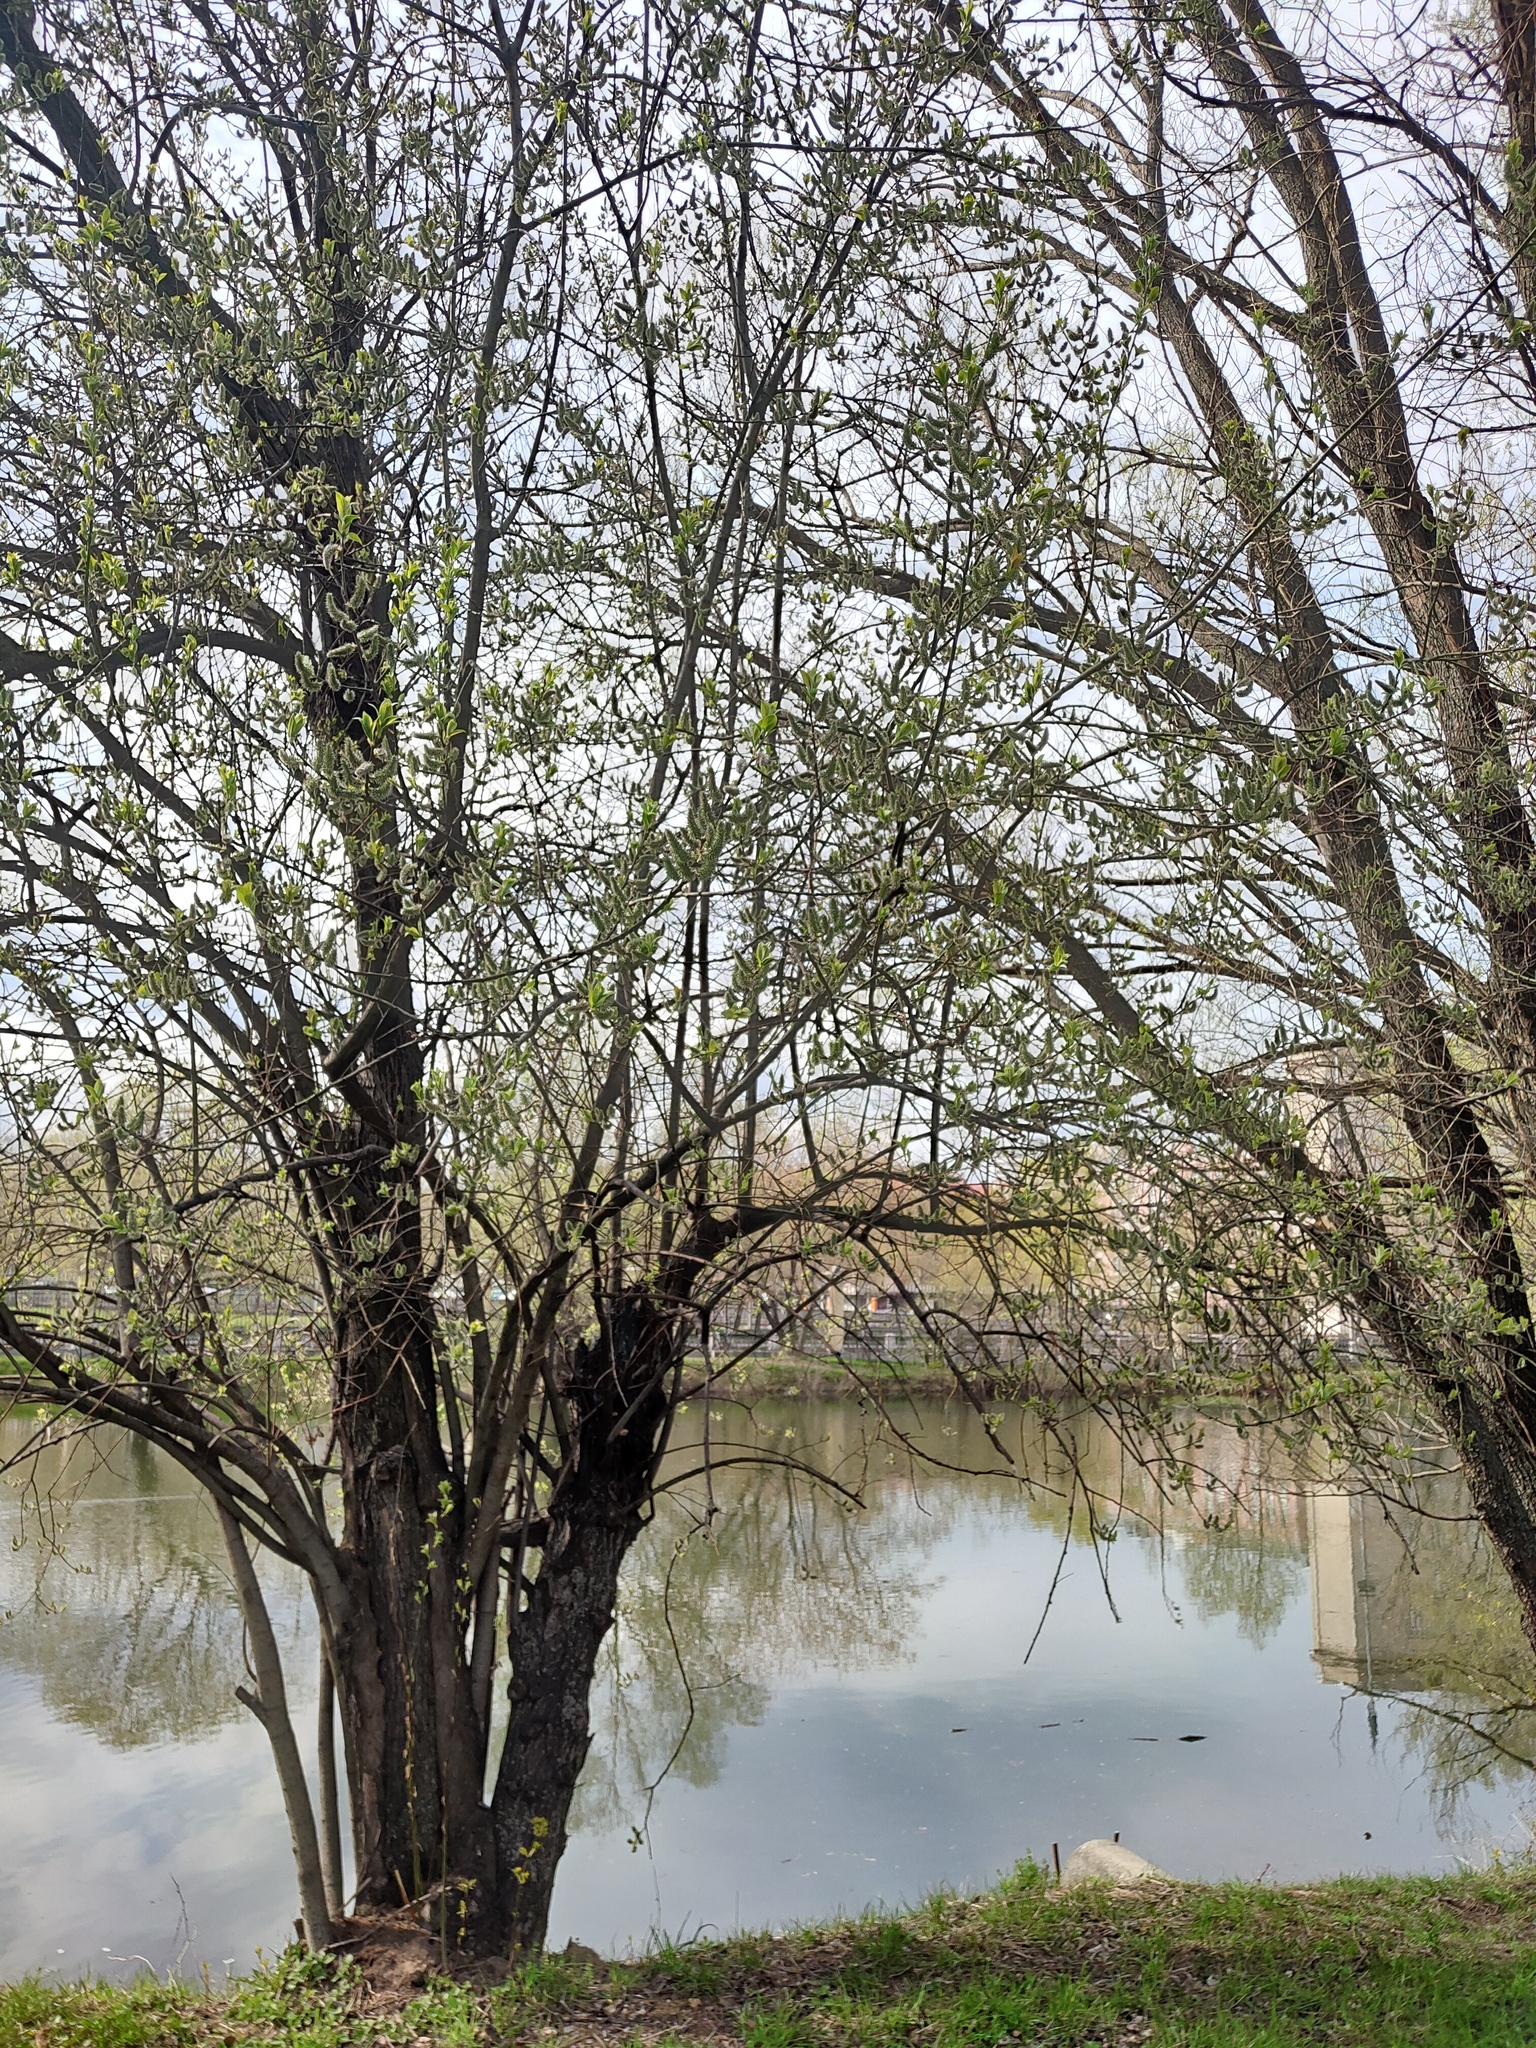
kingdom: Plantae
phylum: Tracheophyta
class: Magnoliopsida
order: Malpighiales
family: Salicaceae
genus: Salix
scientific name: Salix caprea
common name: Goat willow
